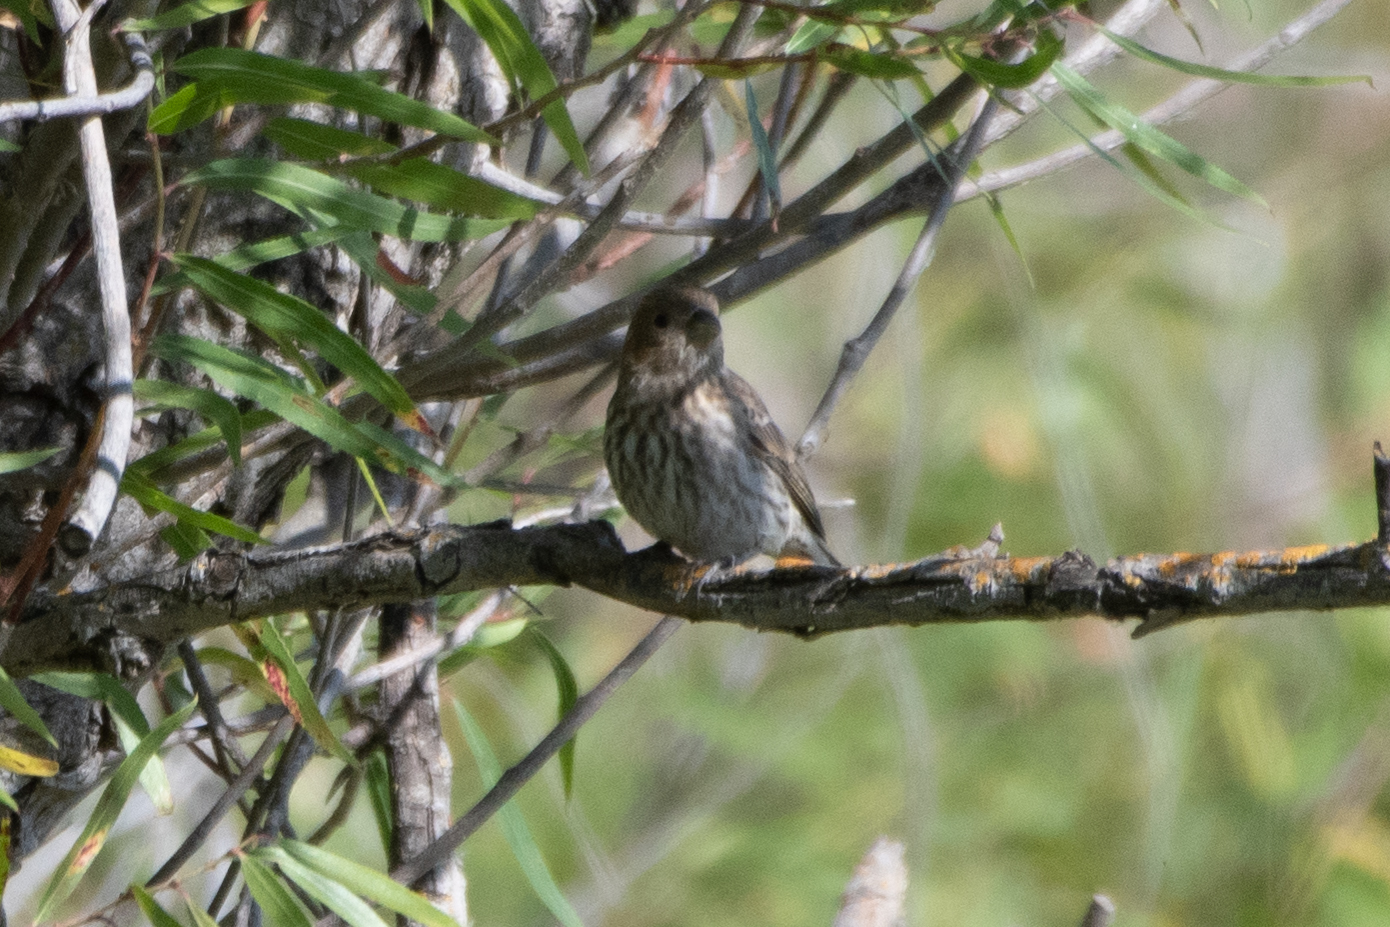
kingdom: Animalia
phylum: Chordata
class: Aves
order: Passeriformes
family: Fringillidae
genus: Haemorhous
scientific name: Haemorhous mexicanus
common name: House finch
